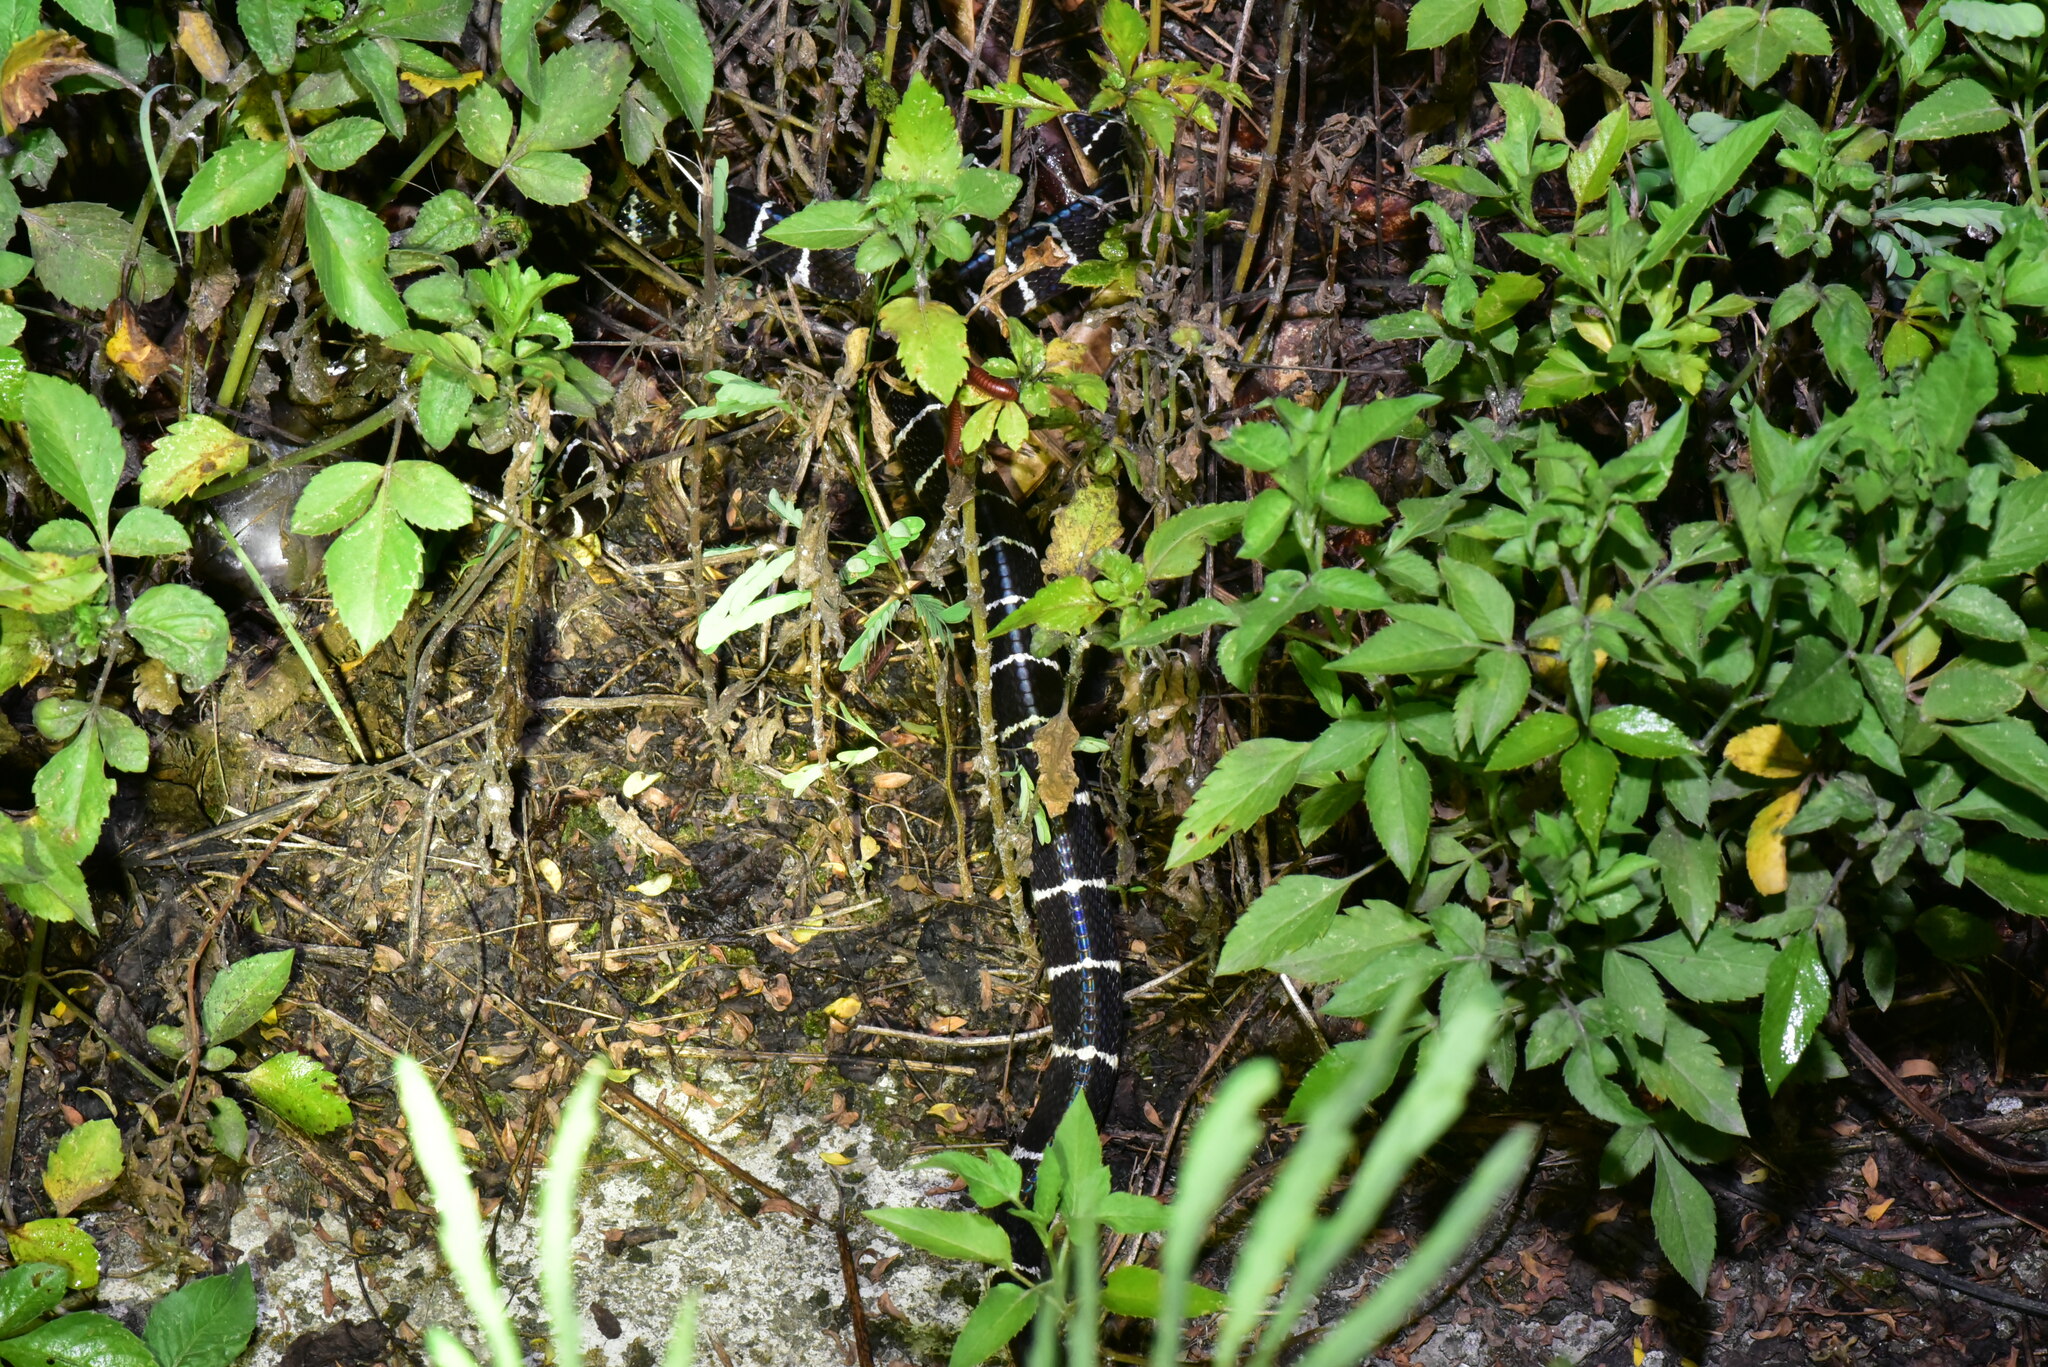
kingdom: Animalia
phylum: Chordata
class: Squamata
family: Elapidae
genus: Bungarus
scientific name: Bungarus multicinctus
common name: Many-banded krait
